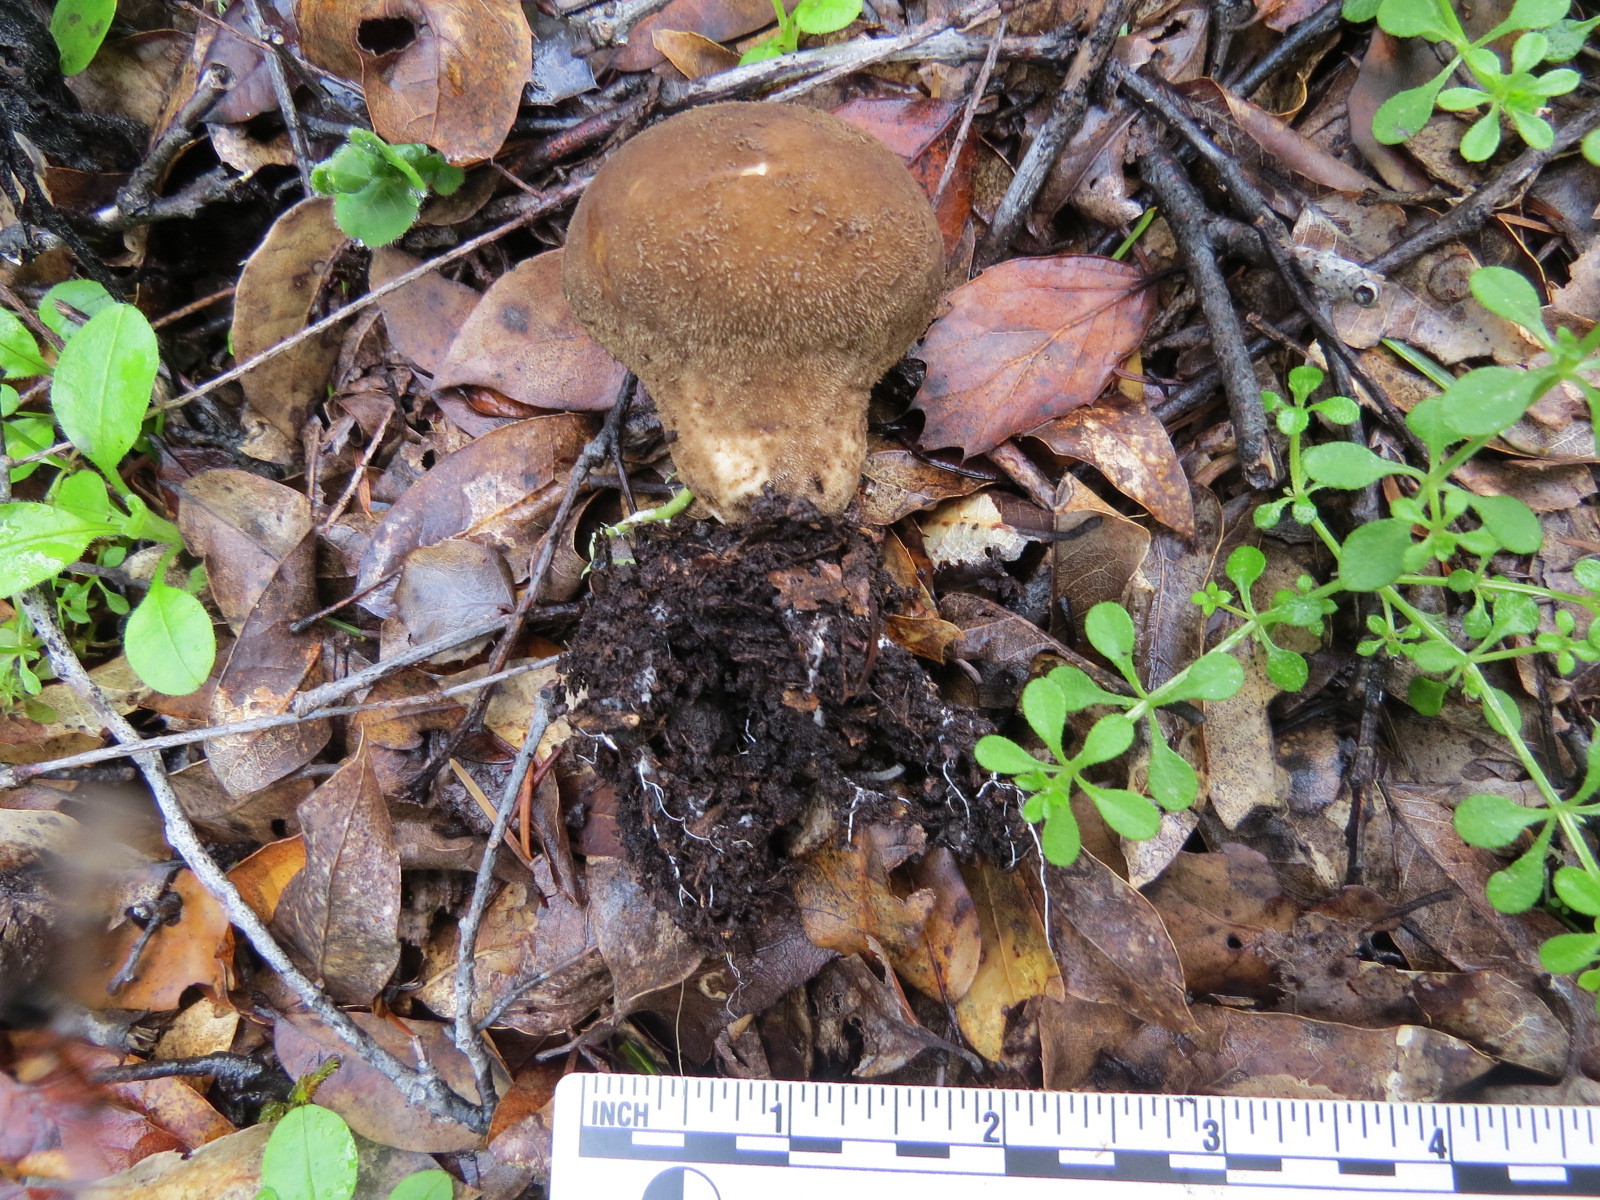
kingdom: Fungi
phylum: Basidiomycota
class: Agaricomycetes
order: Agaricales
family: Lycoperdaceae
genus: Lycoperdon
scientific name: Lycoperdon umbrinum
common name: Umber-brown puffball
